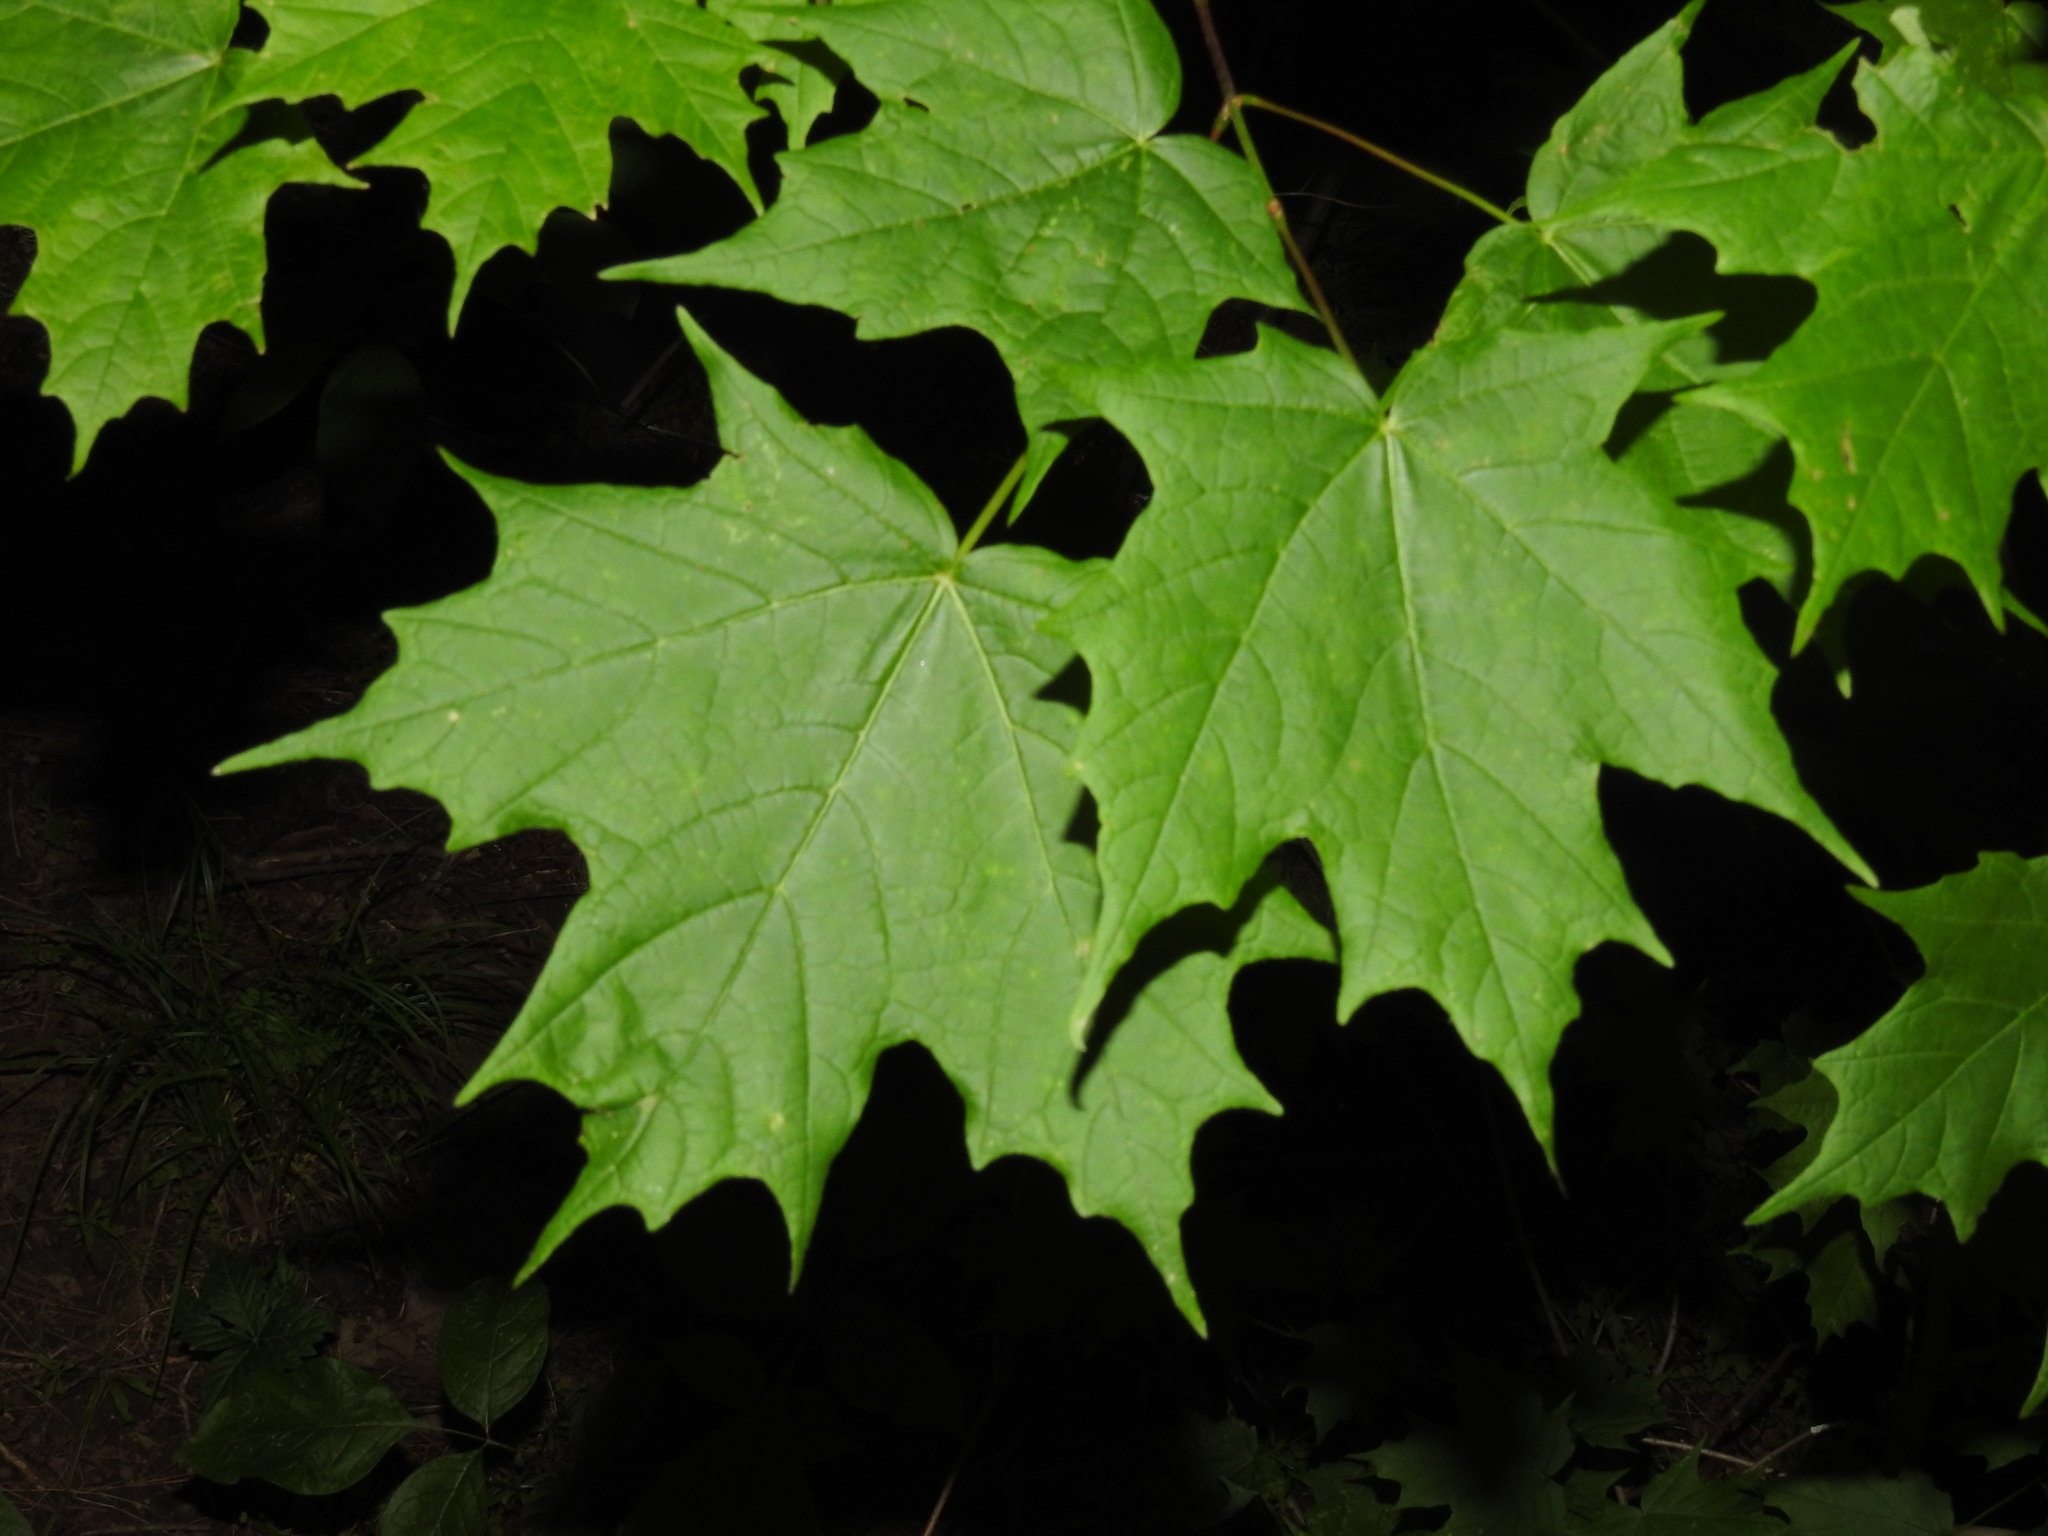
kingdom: Plantae
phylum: Tracheophyta
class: Magnoliopsida
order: Sapindales
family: Sapindaceae
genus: Acer
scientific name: Acer saccharum
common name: Sugar maple
